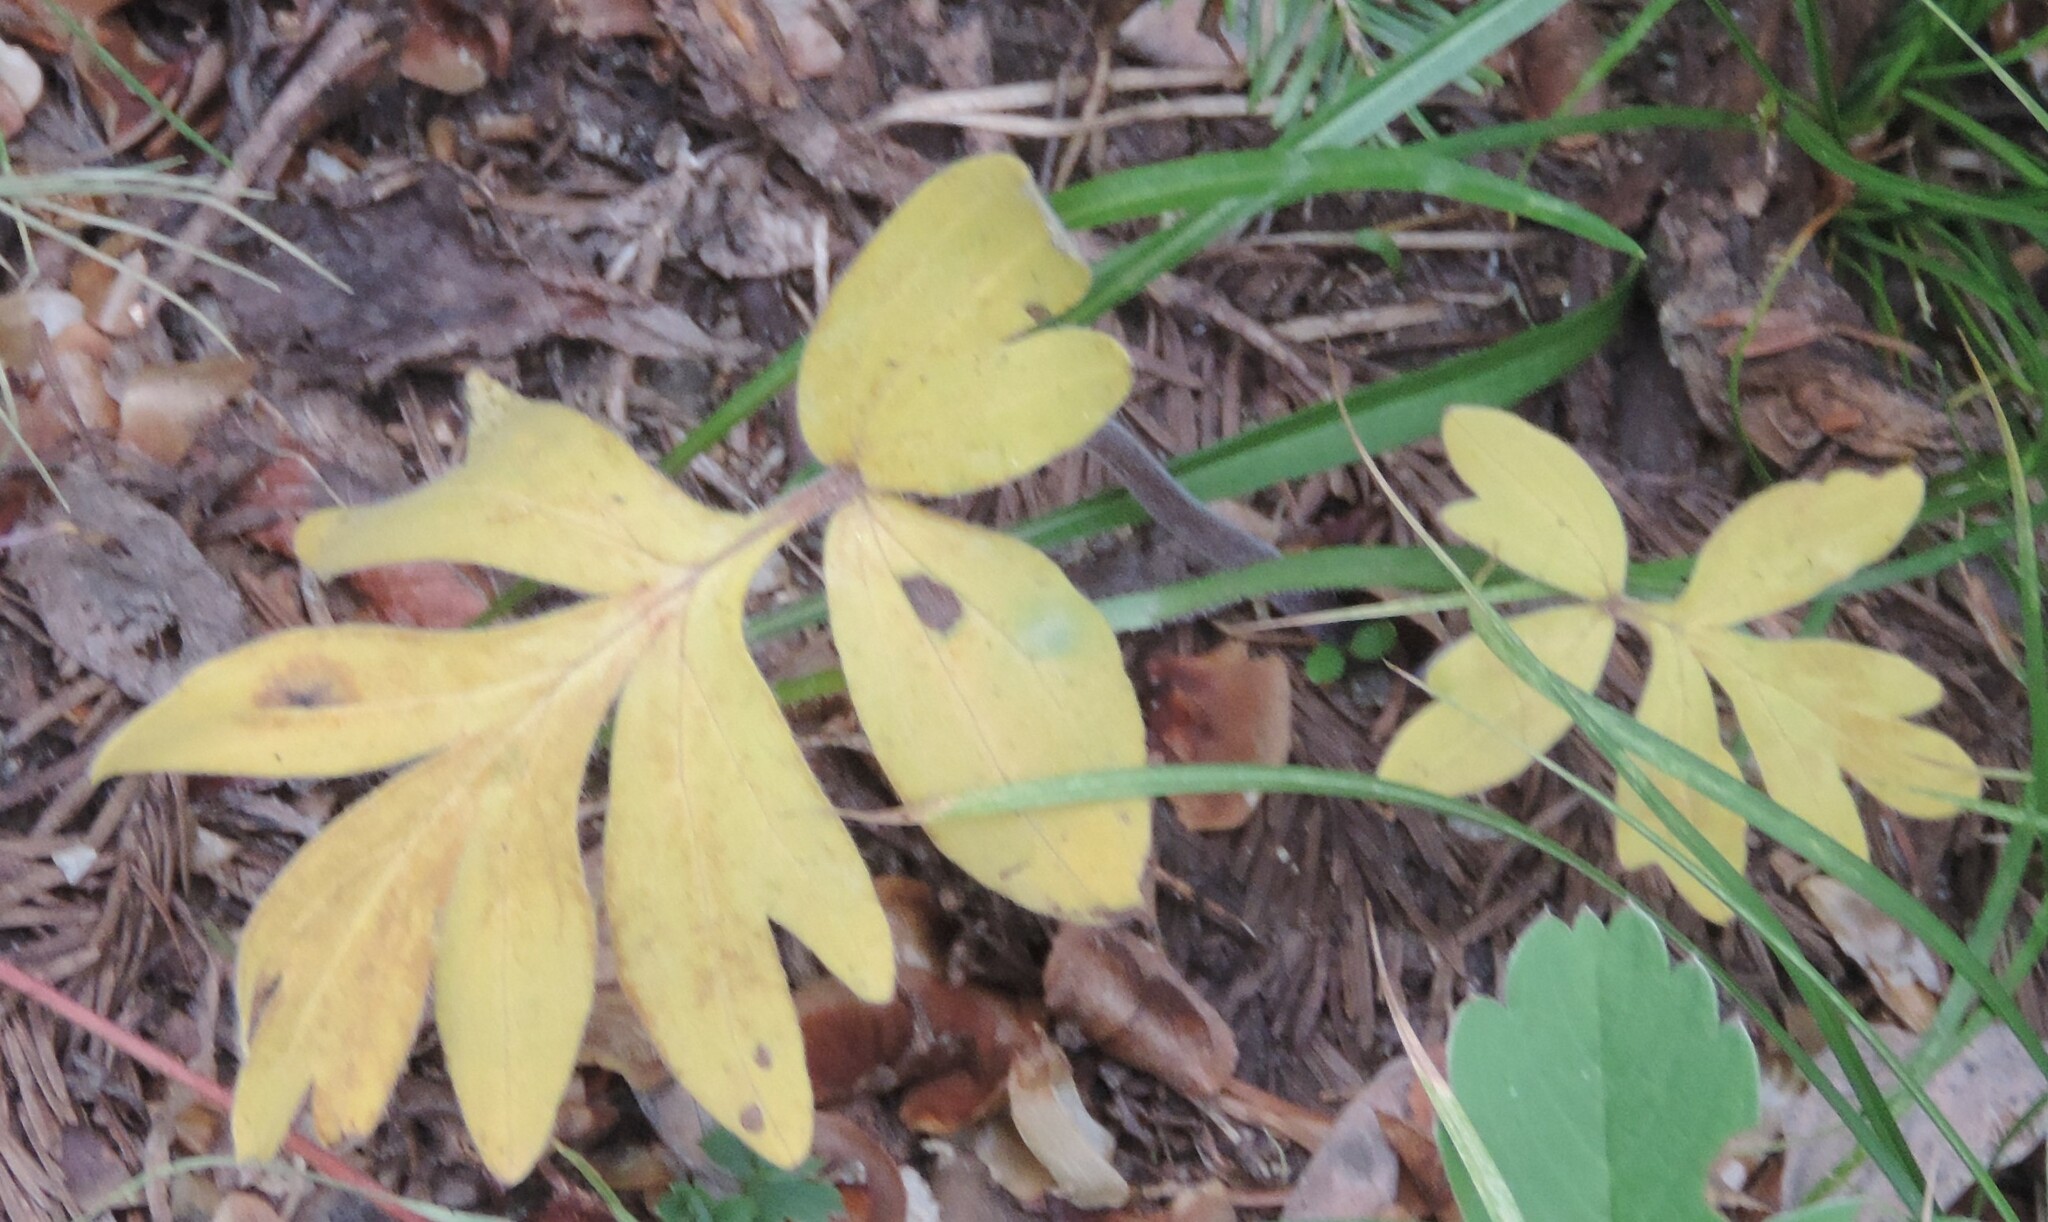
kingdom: Plantae
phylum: Tracheophyta
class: Magnoliopsida
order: Boraginales
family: Hydrophyllaceae
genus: Hydrophyllum
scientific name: Hydrophyllum capitatum
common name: Woollen-breeches
